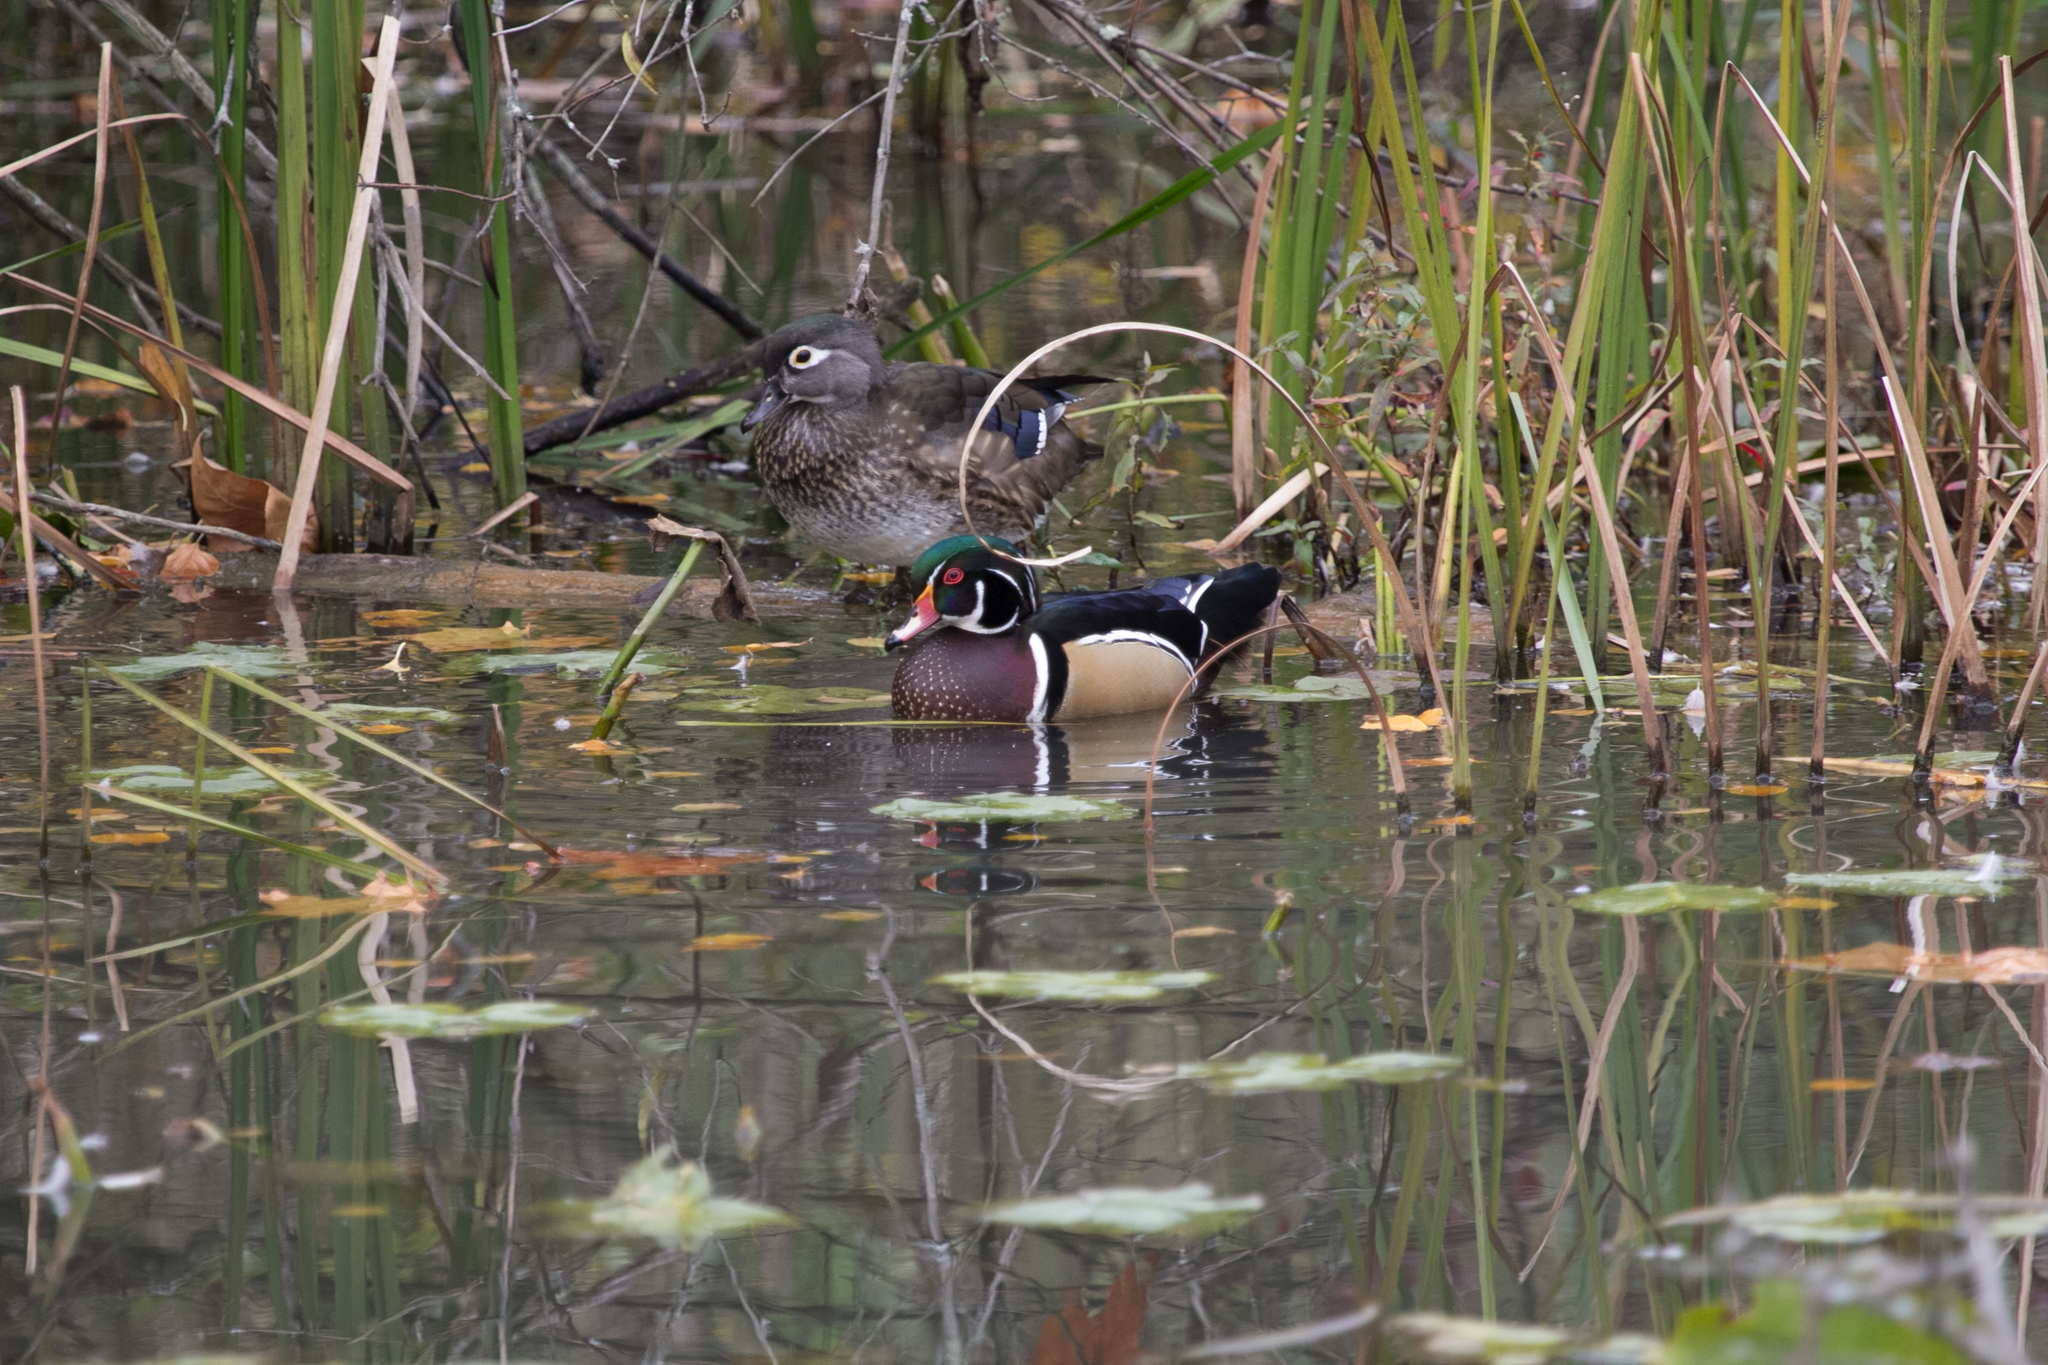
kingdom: Animalia
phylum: Chordata
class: Aves
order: Anseriformes
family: Anatidae
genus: Aix
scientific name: Aix sponsa
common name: Wood duck
